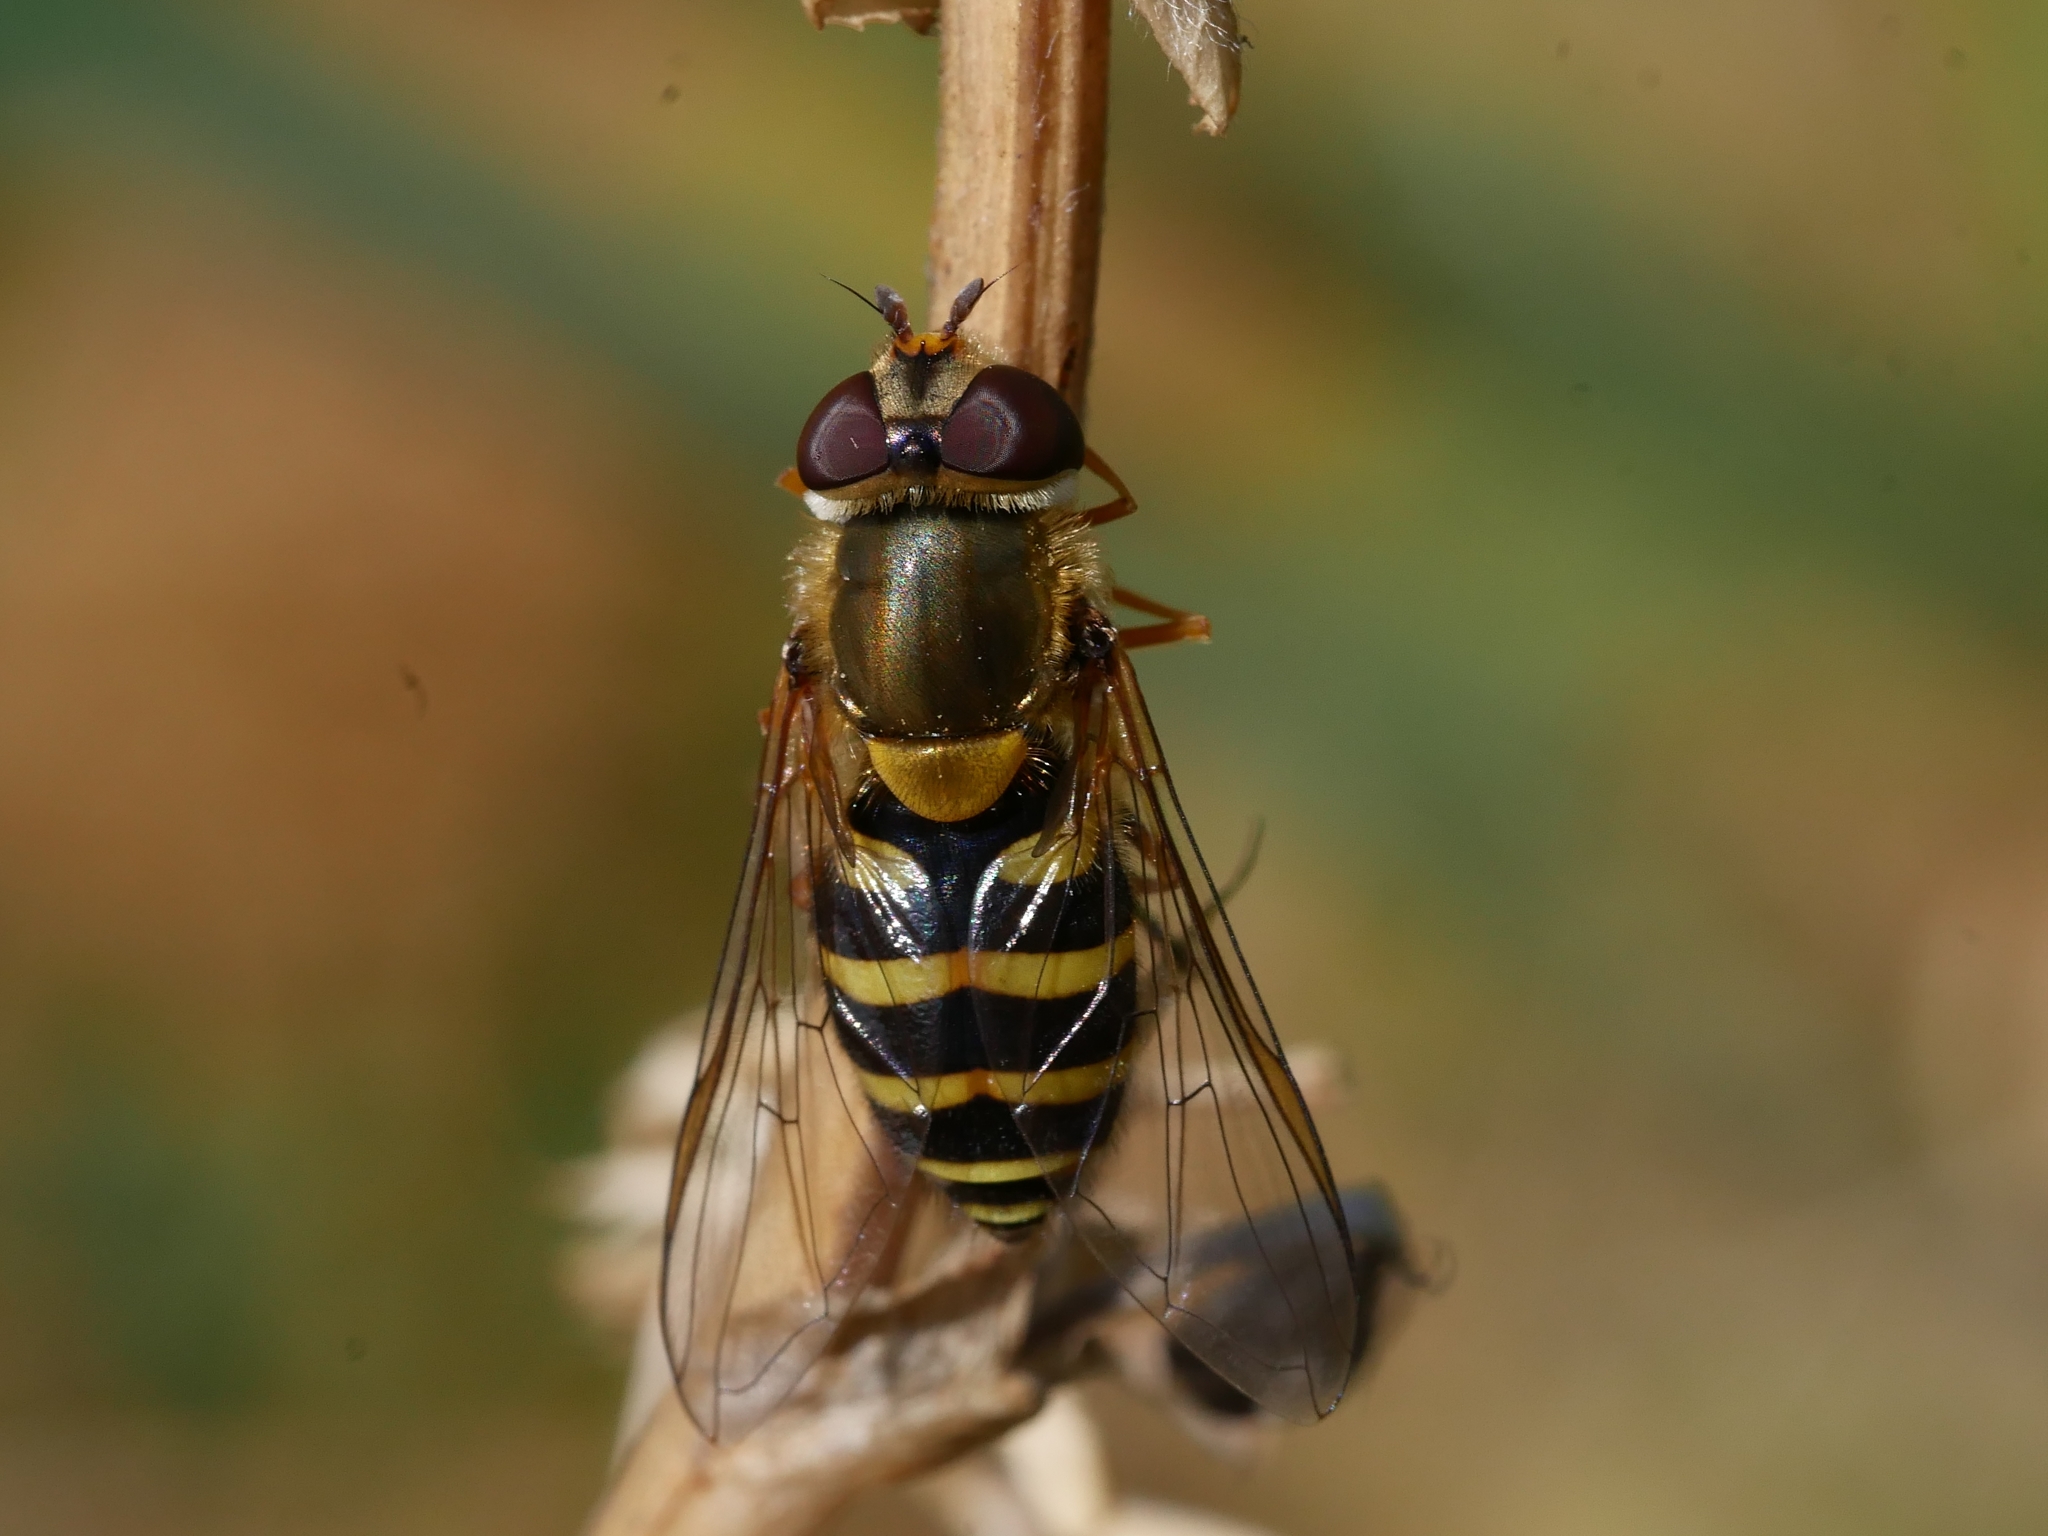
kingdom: Animalia
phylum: Arthropoda
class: Insecta
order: Diptera
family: Syrphidae
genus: Syrphus
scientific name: Syrphus vitripennis
